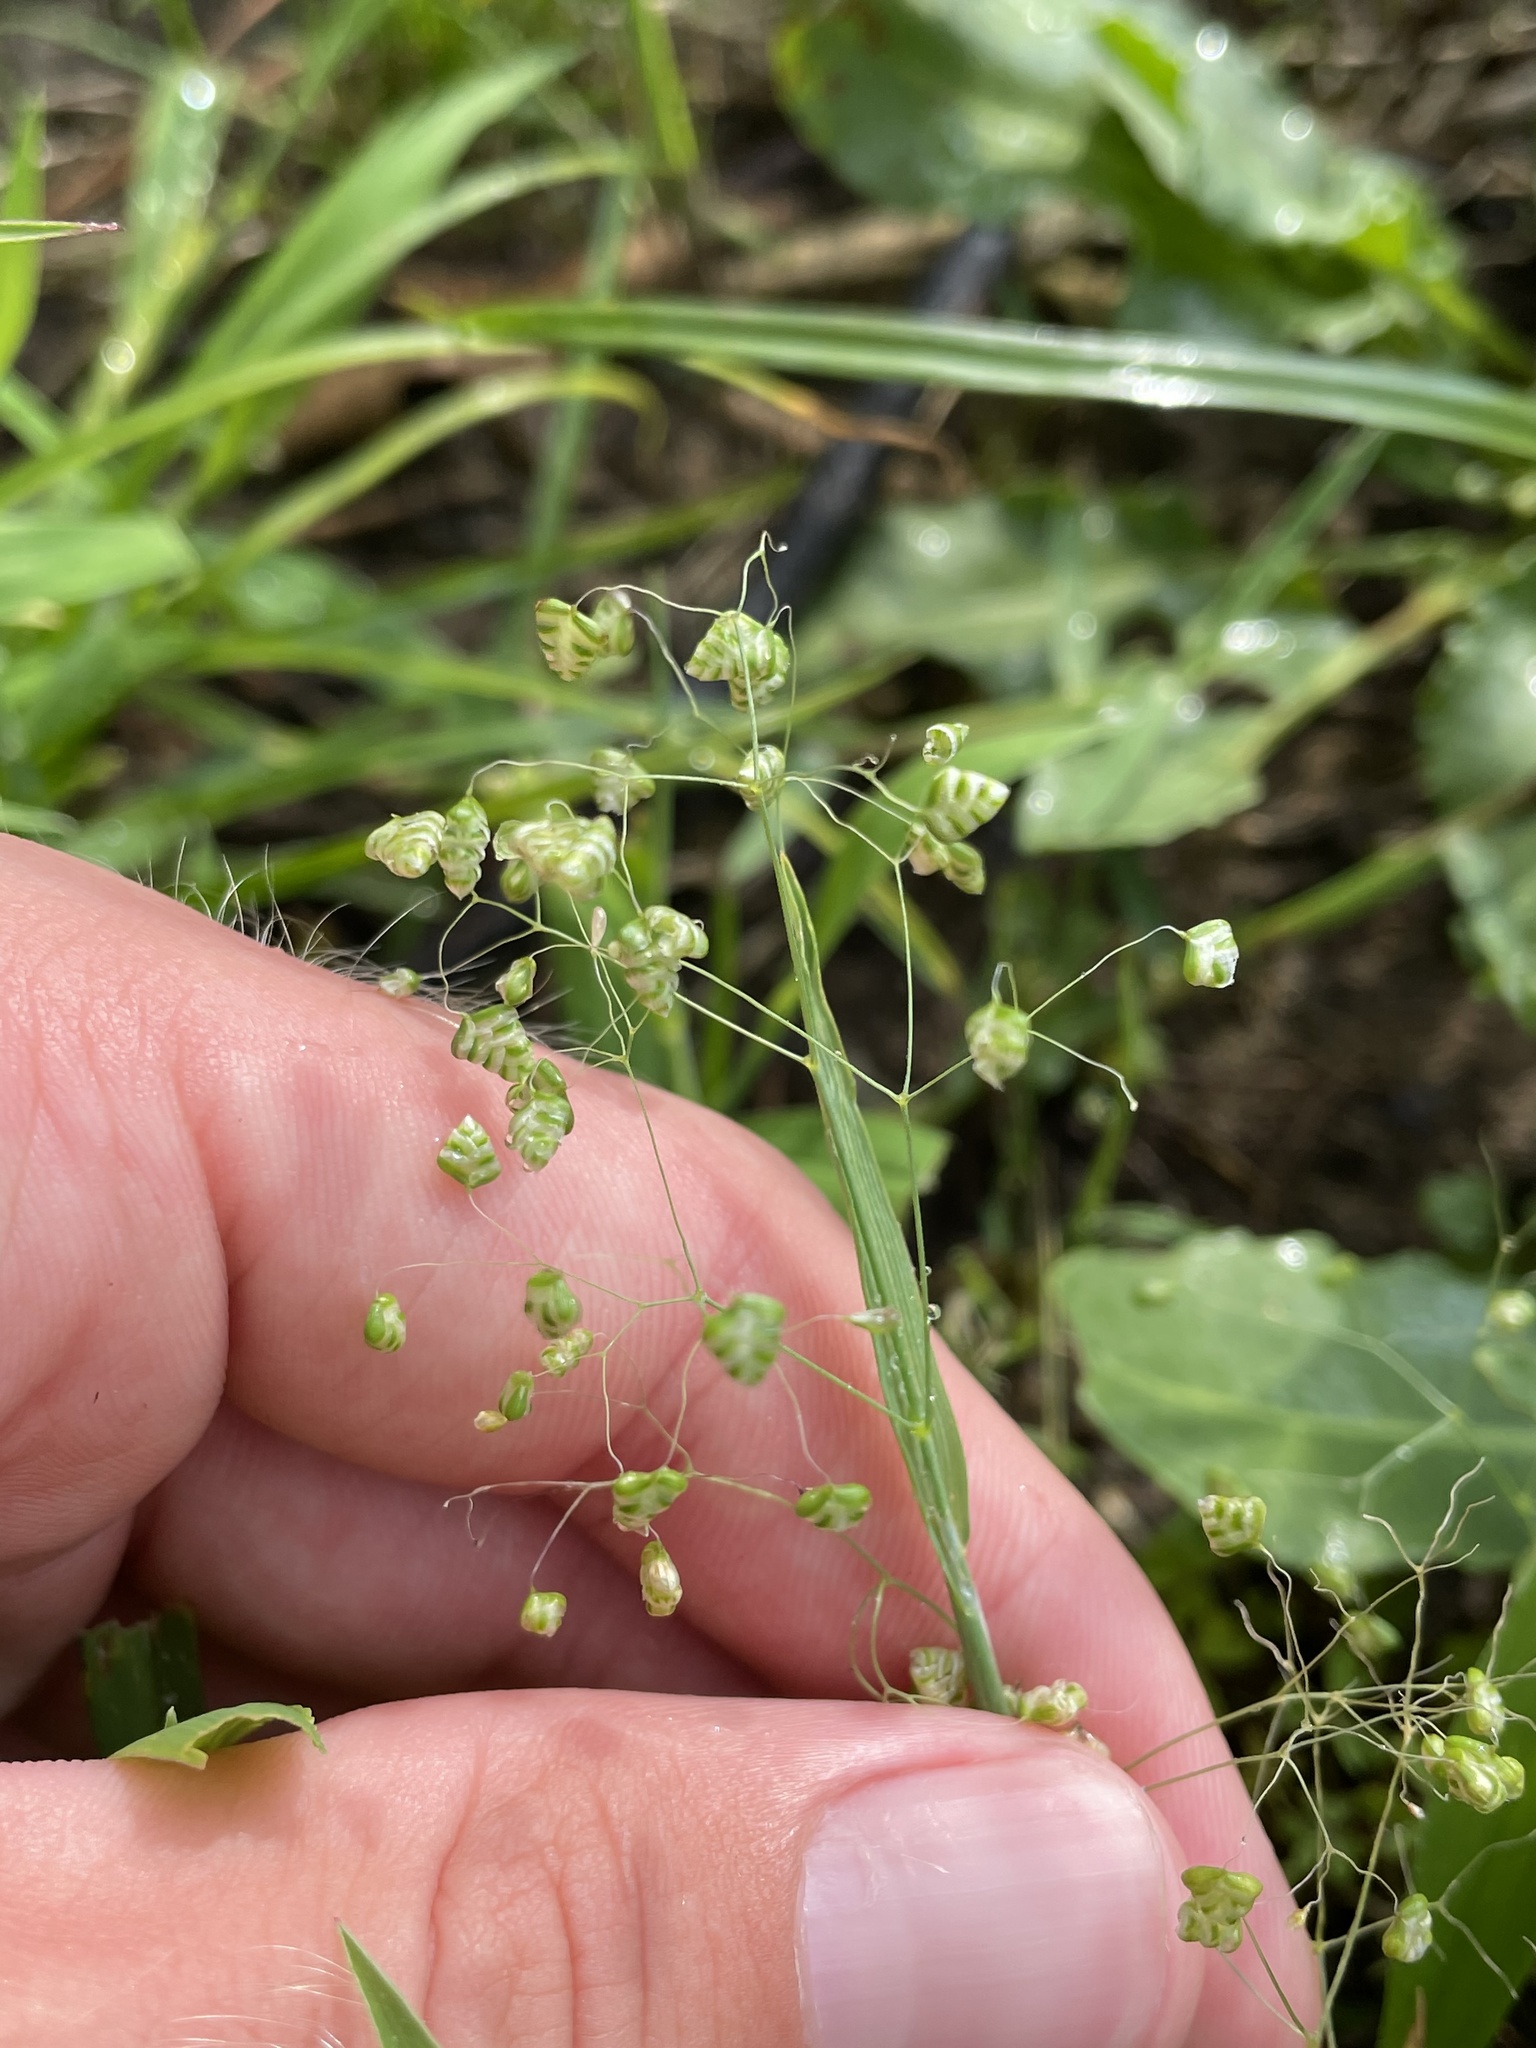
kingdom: Plantae
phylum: Tracheophyta
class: Liliopsida
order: Poales
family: Poaceae
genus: Briza
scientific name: Briza minor
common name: Lesser quaking-grass
